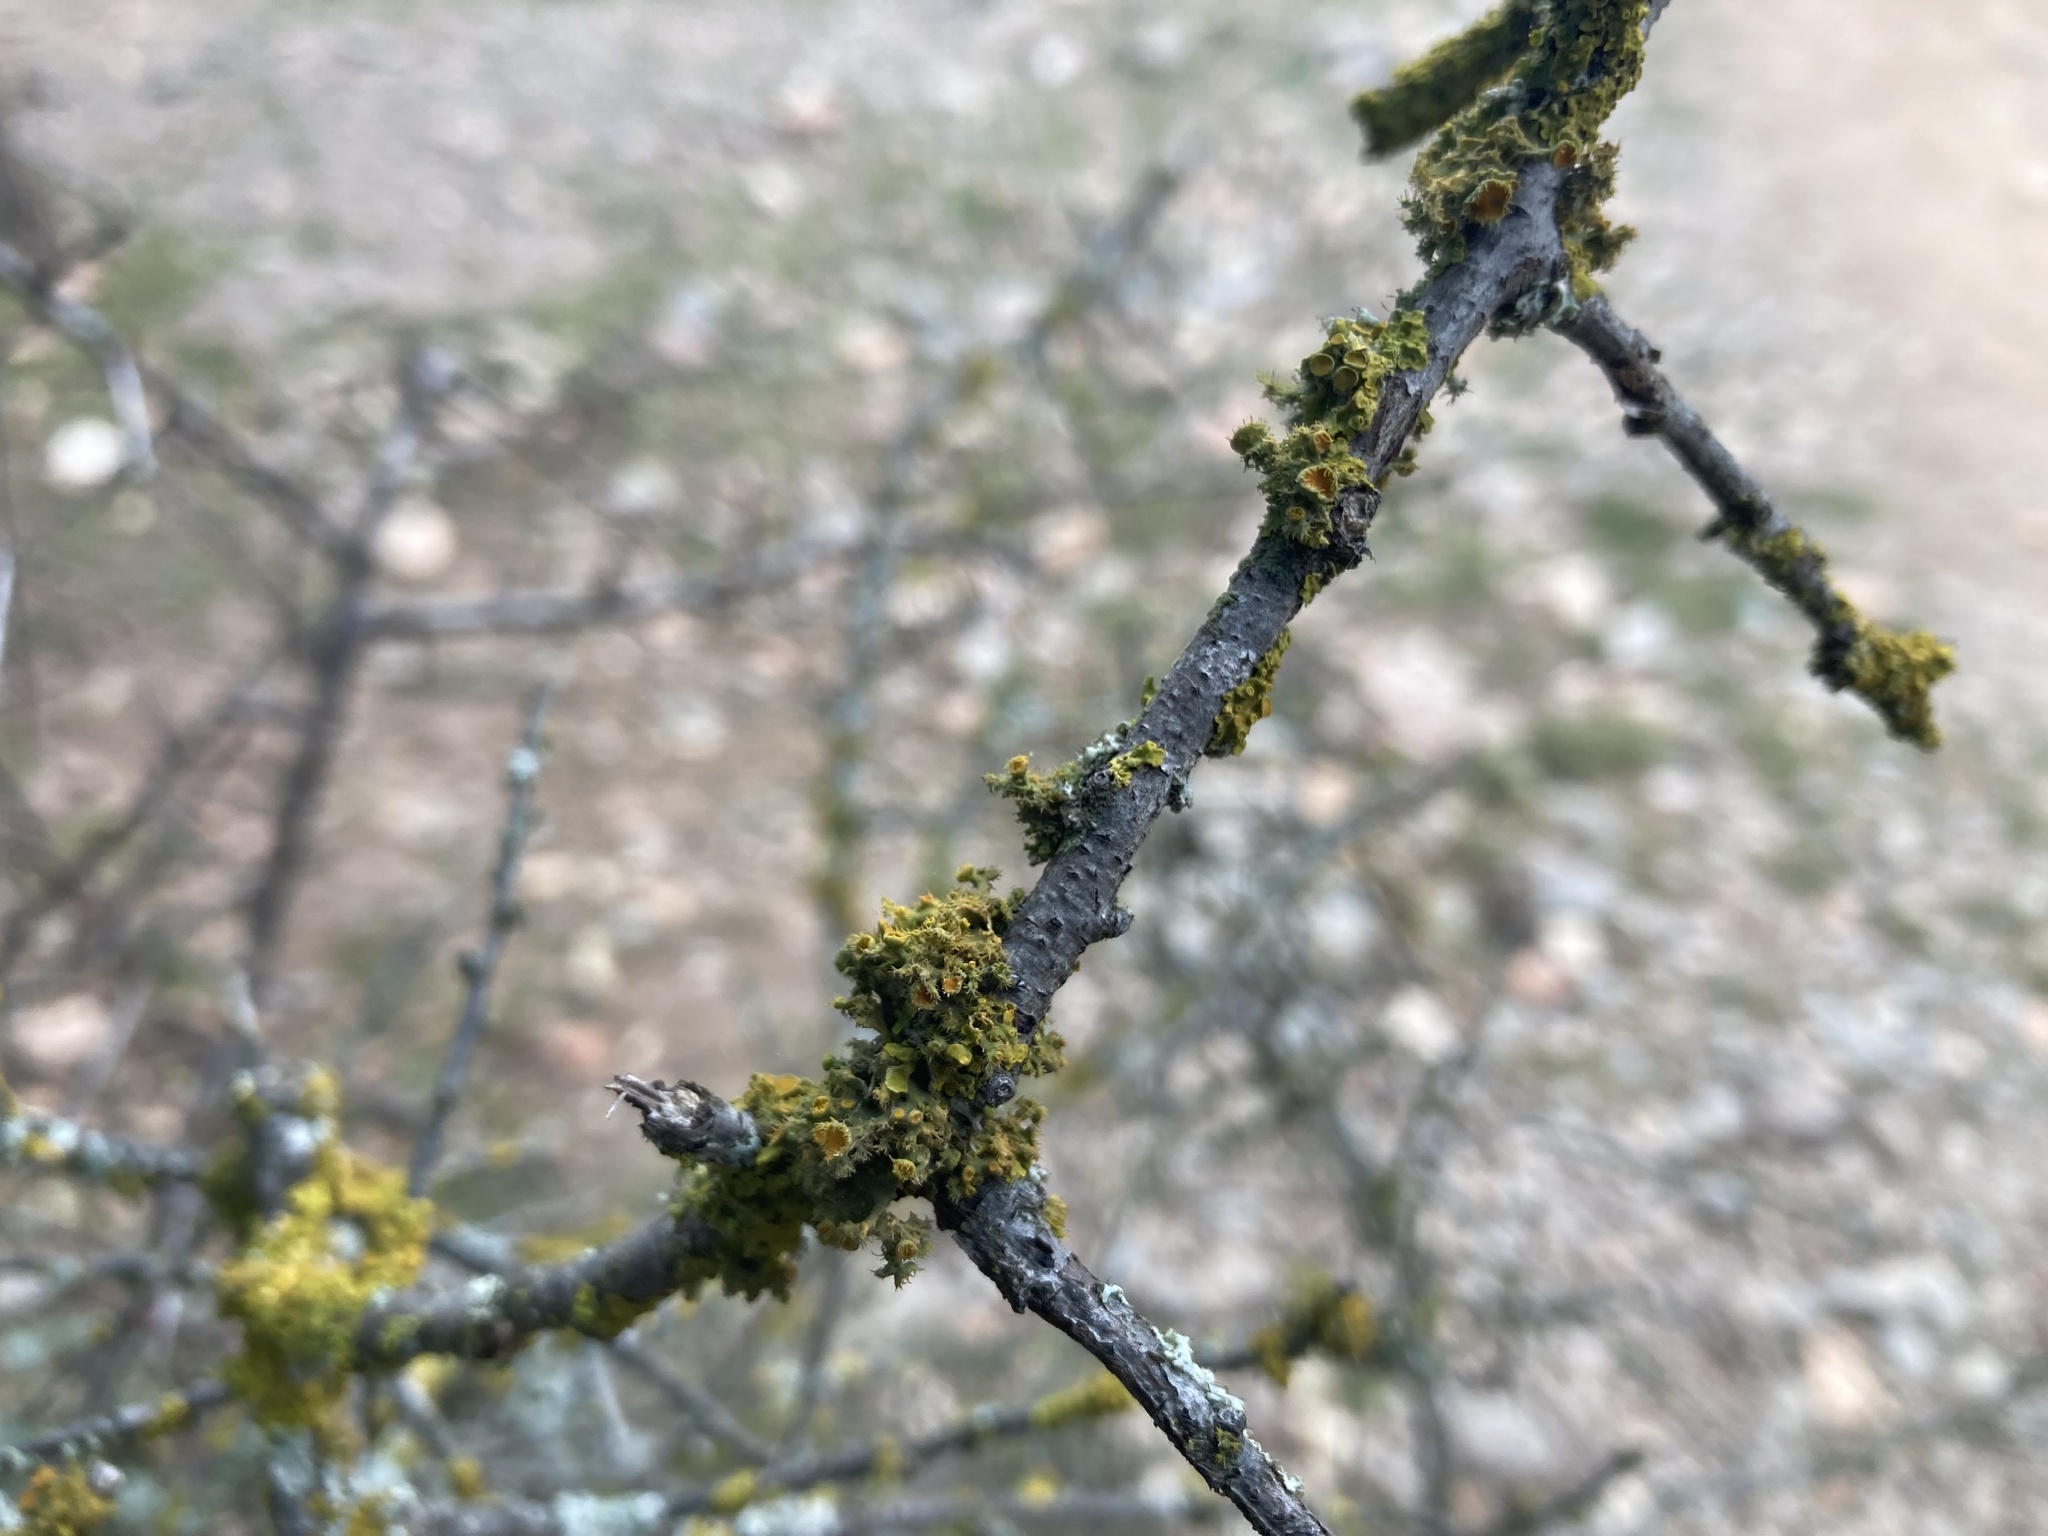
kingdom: Fungi
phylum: Ascomycota
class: Lecanoromycetes
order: Teloschistales
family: Teloschistaceae
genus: Niorma
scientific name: Niorma chrysophthalma
